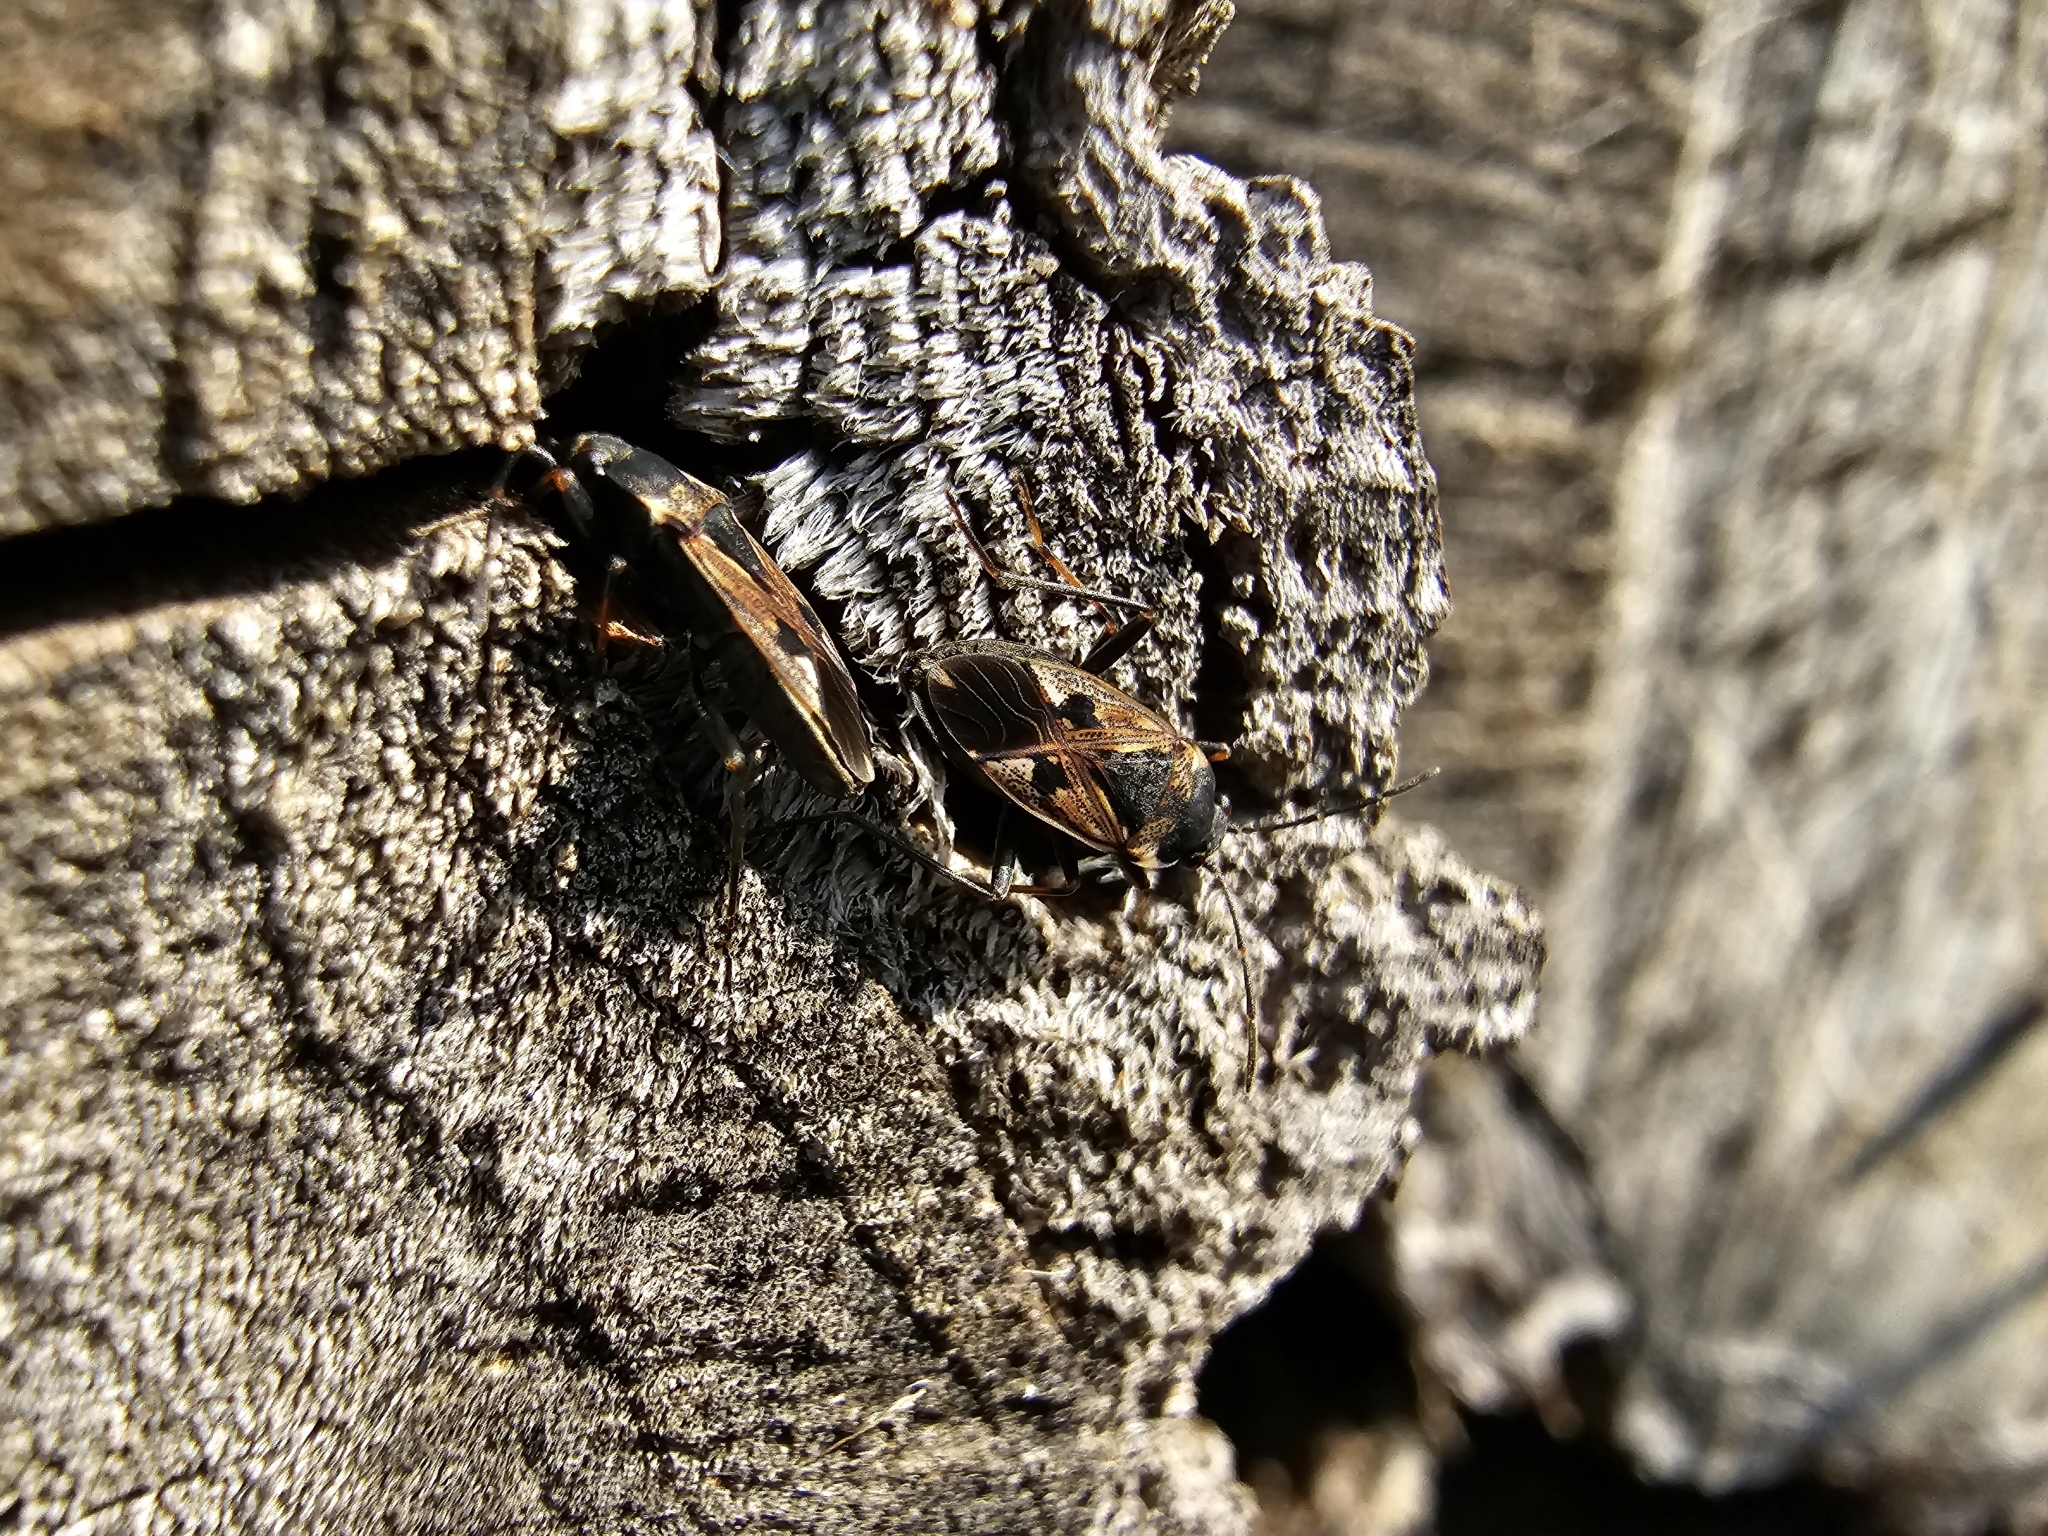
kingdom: Animalia
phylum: Arthropoda
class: Insecta
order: Hemiptera
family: Rhyparochromidae
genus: Rhyparochromus
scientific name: Rhyparochromus vulgaris
